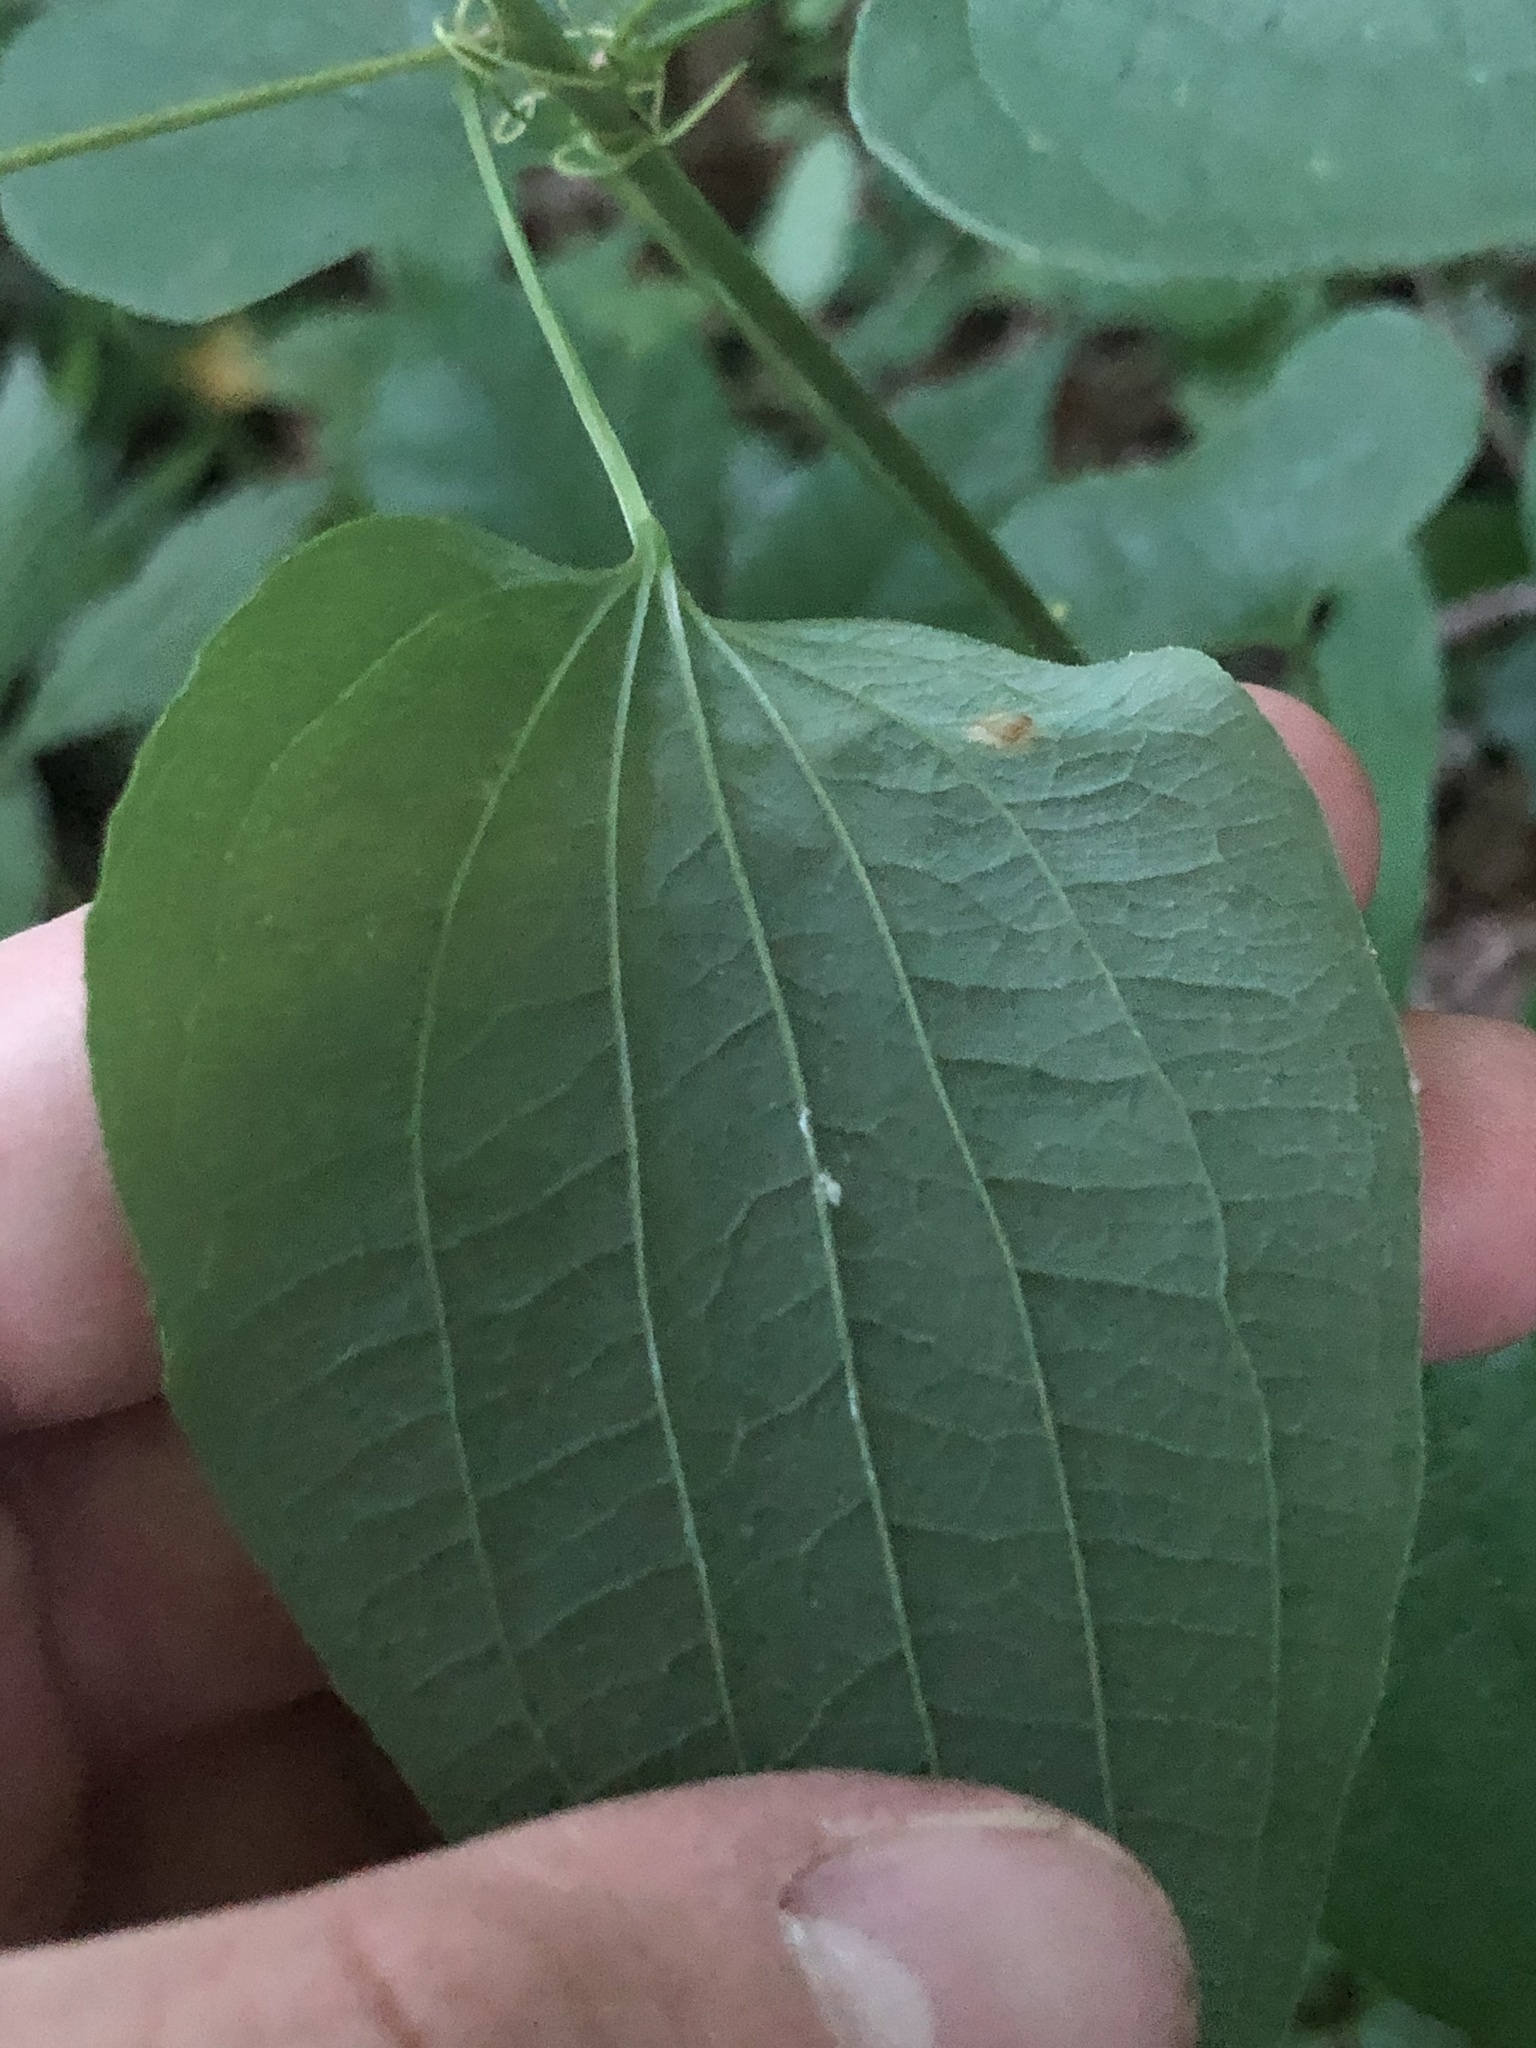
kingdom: Plantae
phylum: Tracheophyta
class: Liliopsida
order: Liliales
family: Smilacaceae
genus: Smilax
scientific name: Smilax lasioneura
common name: Blue ridge carrionflower
